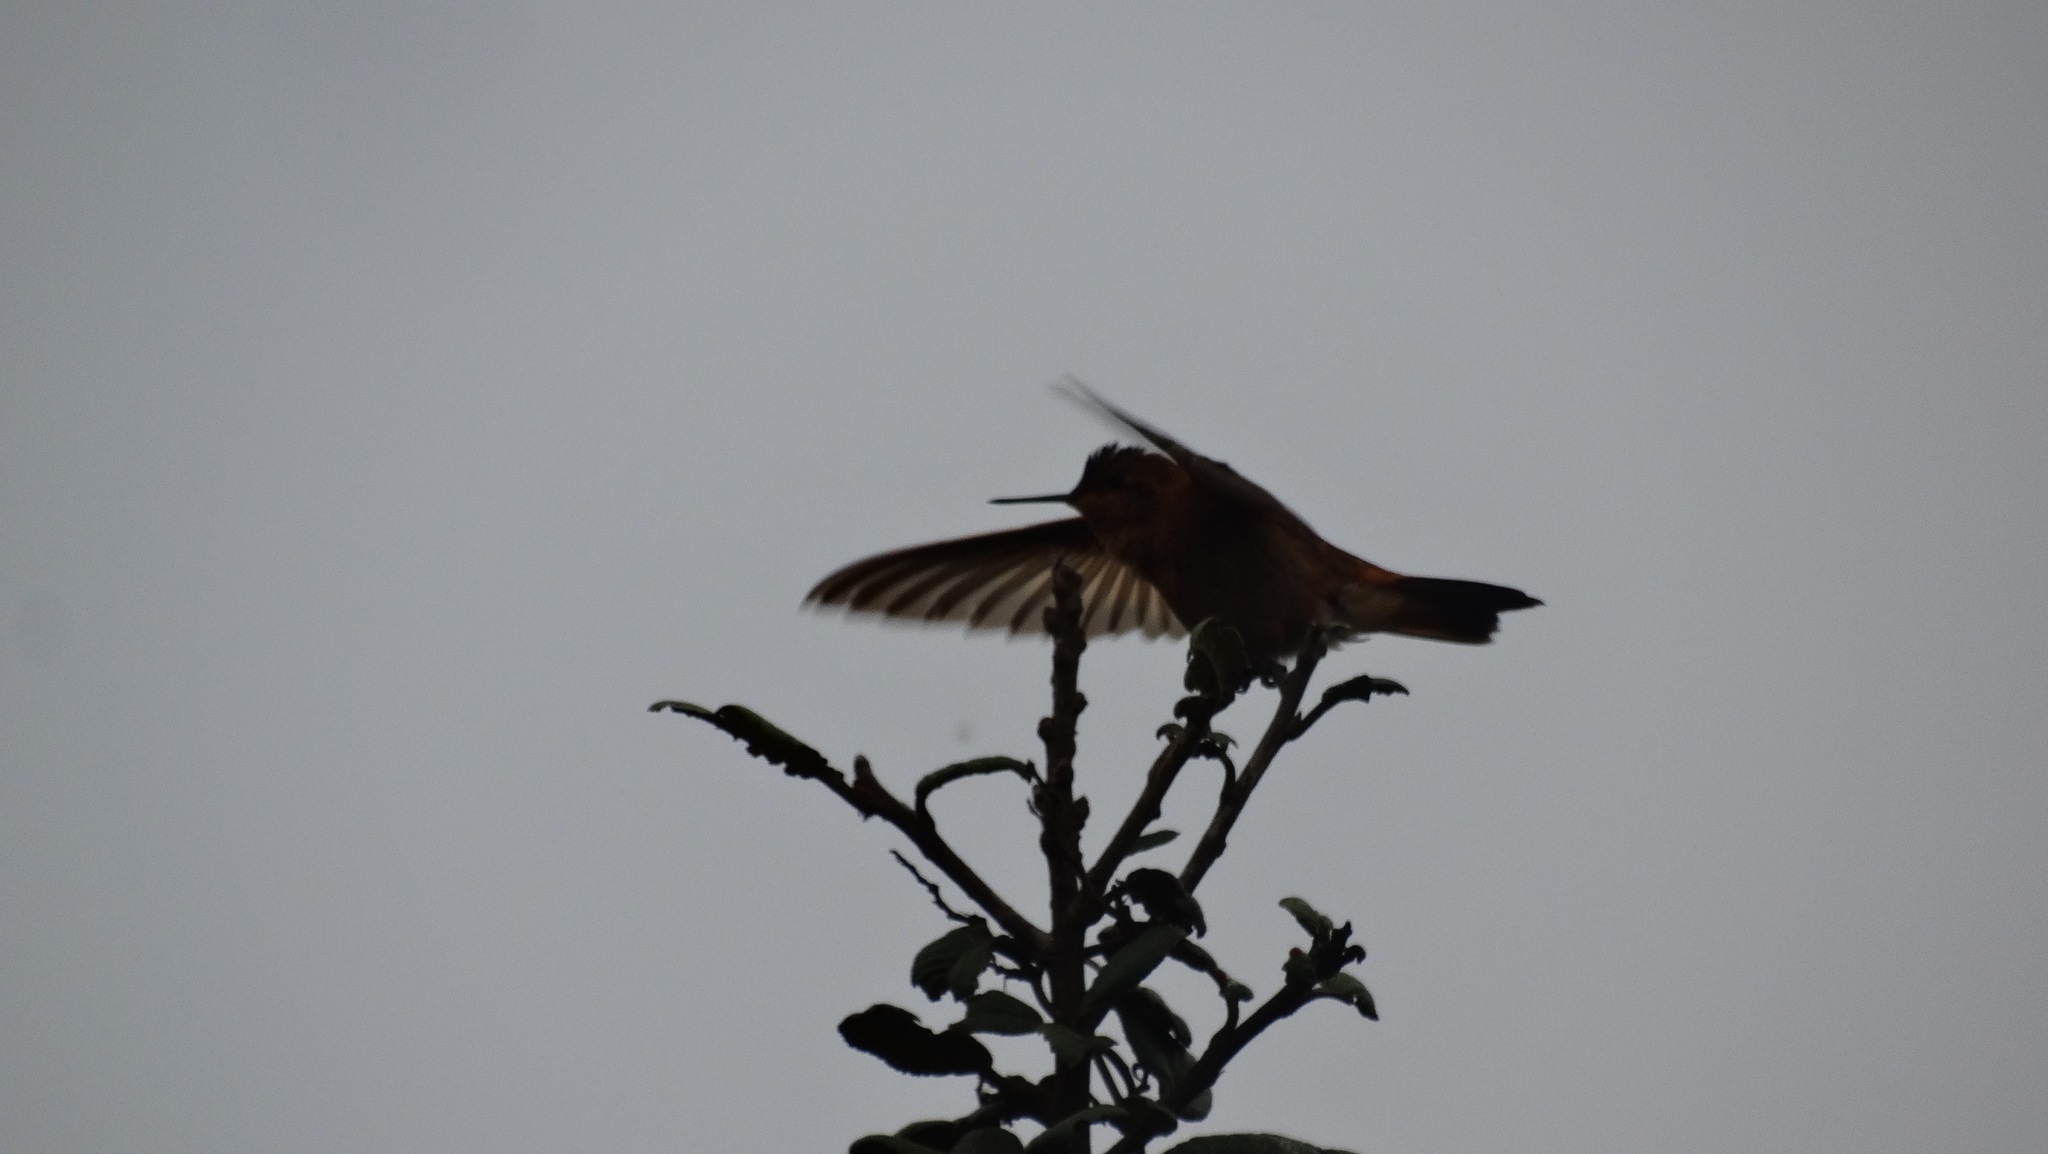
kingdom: Animalia
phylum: Chordata
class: Aves
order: Apodiformes
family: Trochilidae
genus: Aglaeactis
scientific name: Aglaeactis cupripennis
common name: Shining sunbeam
